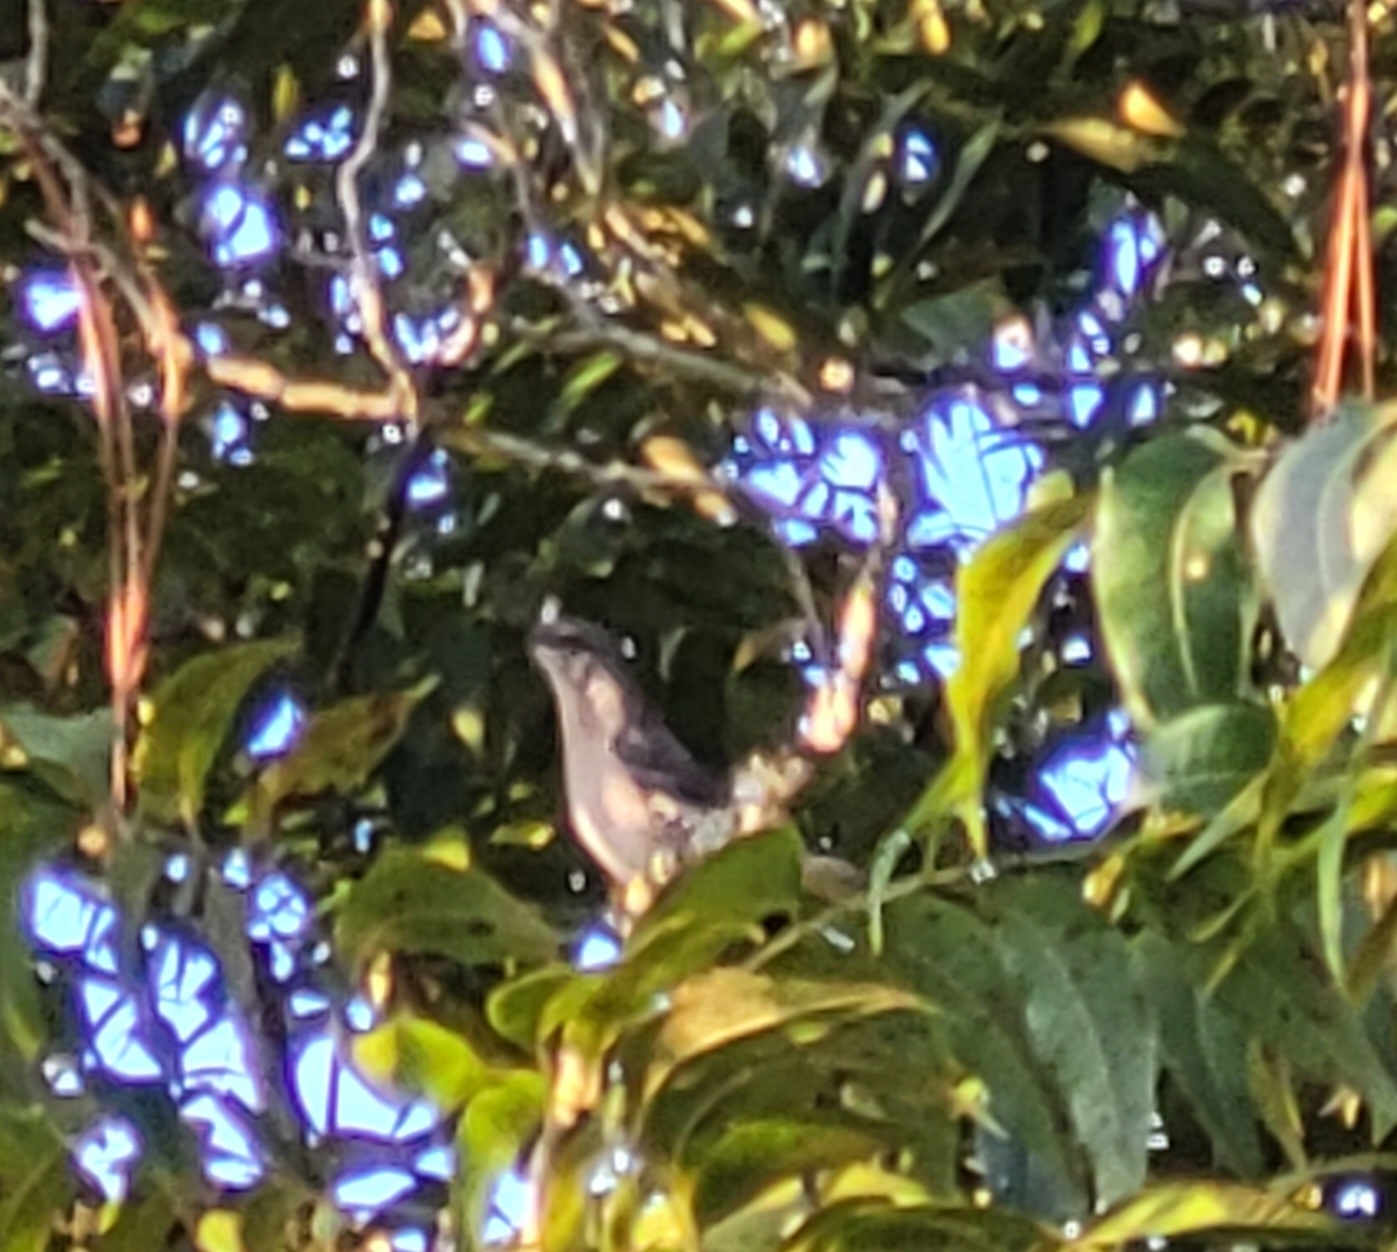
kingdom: Animalia
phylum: Chordata
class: Aves
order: Passeriformes
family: Mimidae
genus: Mimus
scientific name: Mimus polyglottos
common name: Northern mockingbird
